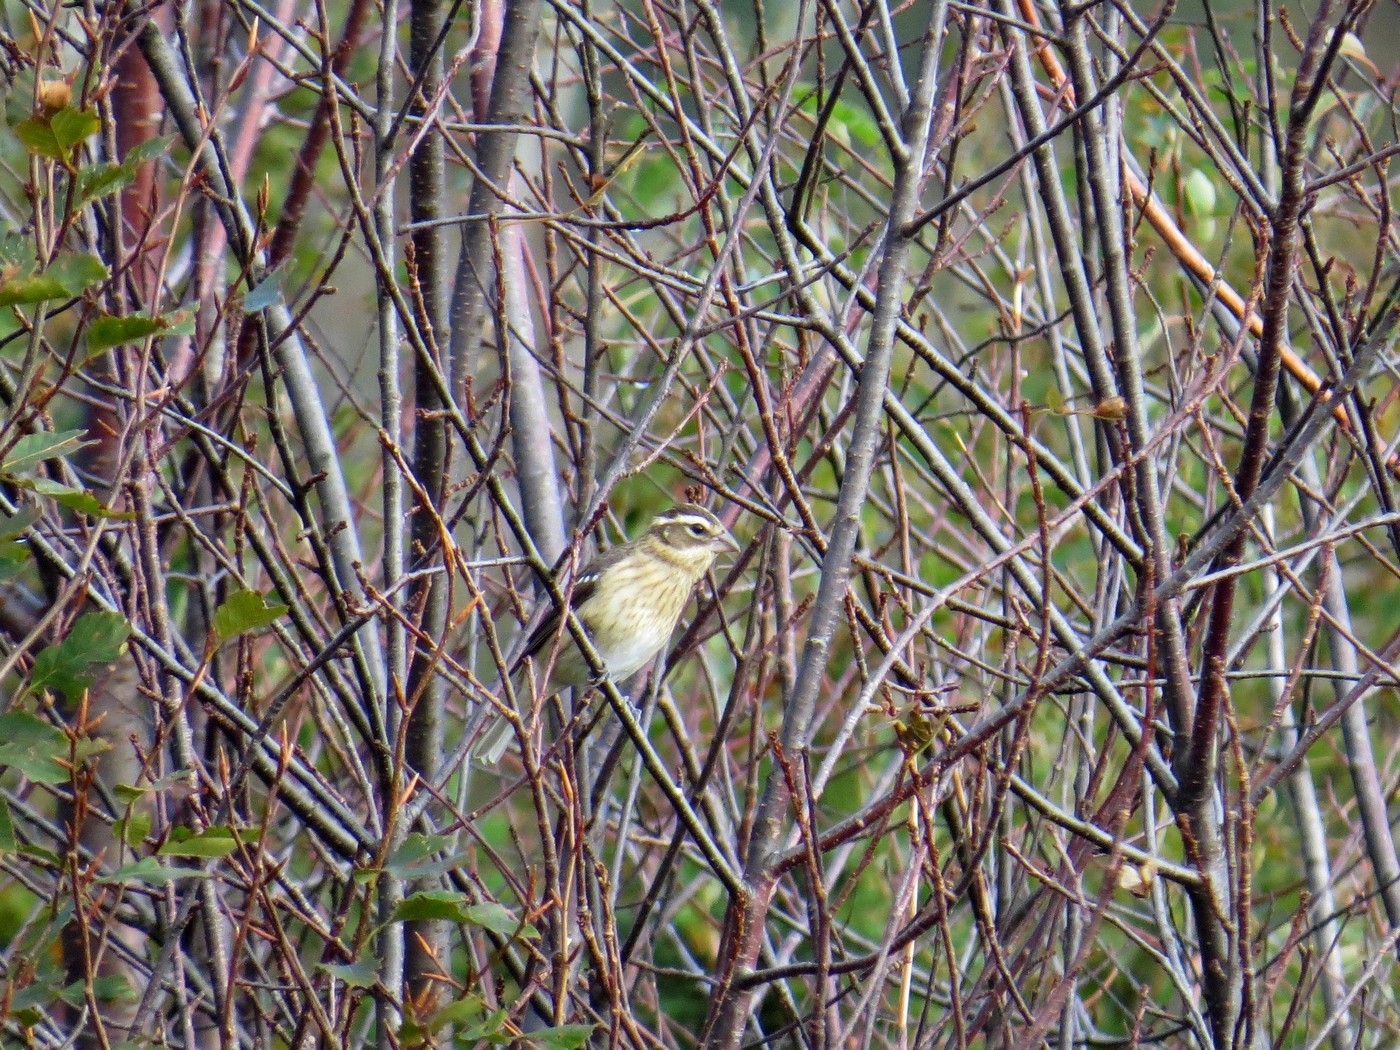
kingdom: Animalia
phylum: Chordata
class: Aves
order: Passeriformes
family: Cardinalidae
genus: Pheucticus
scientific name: Pheucticus ludovicianus
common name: Rose-breasted grosbeak
